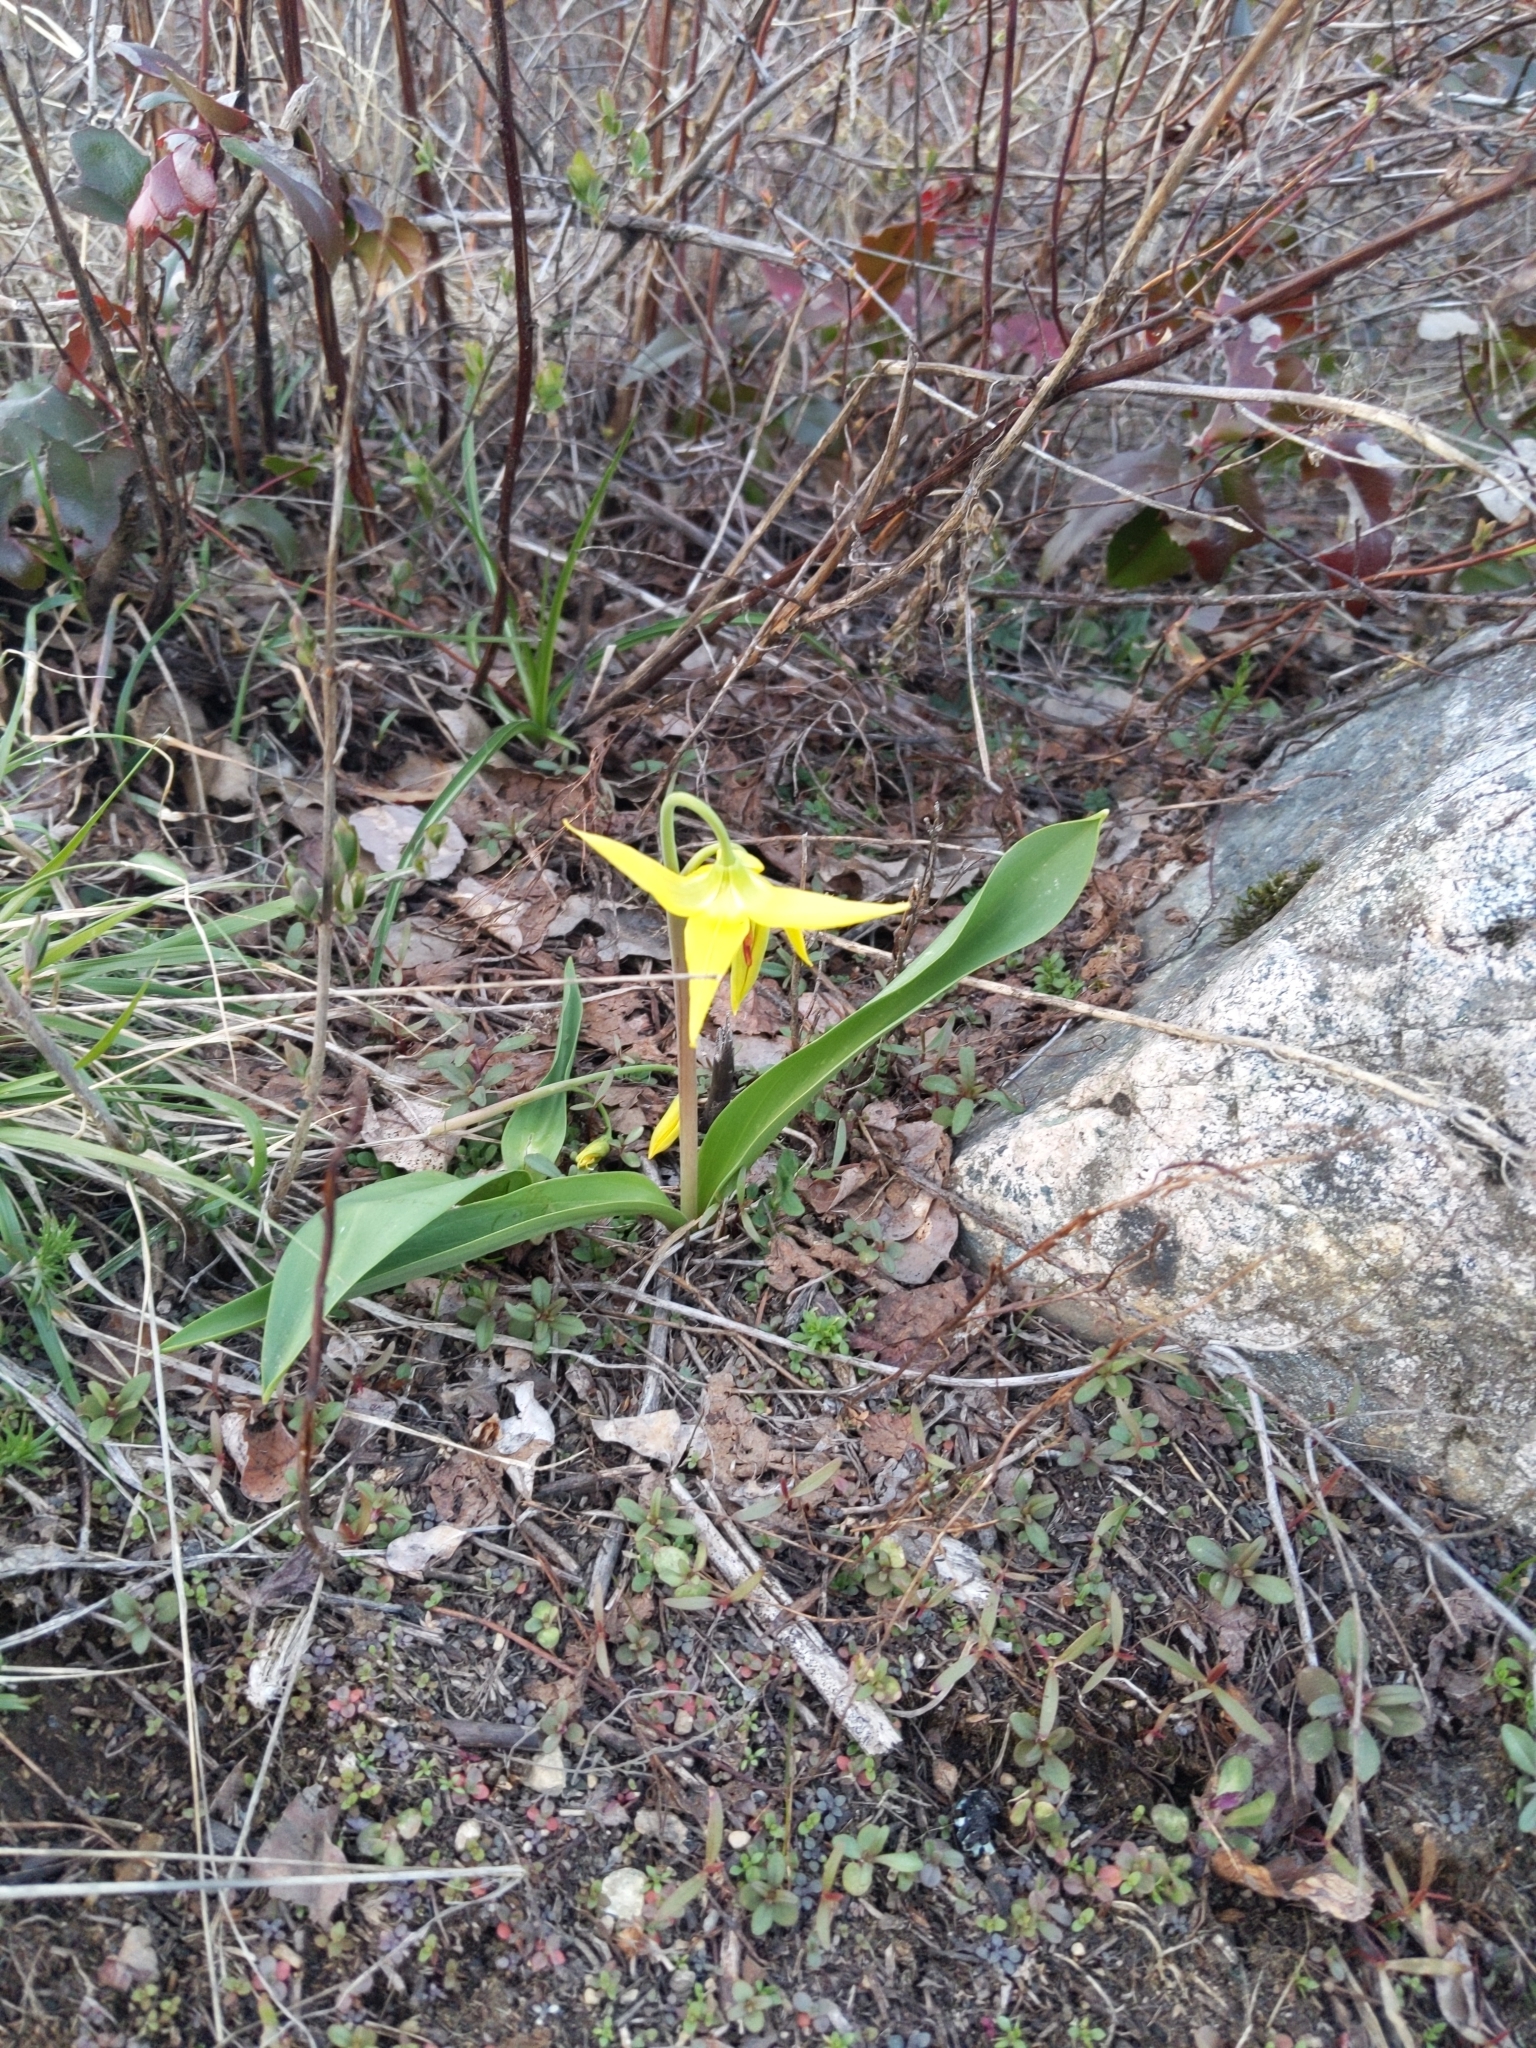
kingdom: Plantae
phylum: Tracheophyta
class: Liliopsida
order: Liliales
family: Liliaceae
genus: Erythronium
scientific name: Erythronium grandiflorum
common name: Avalanche-lily
